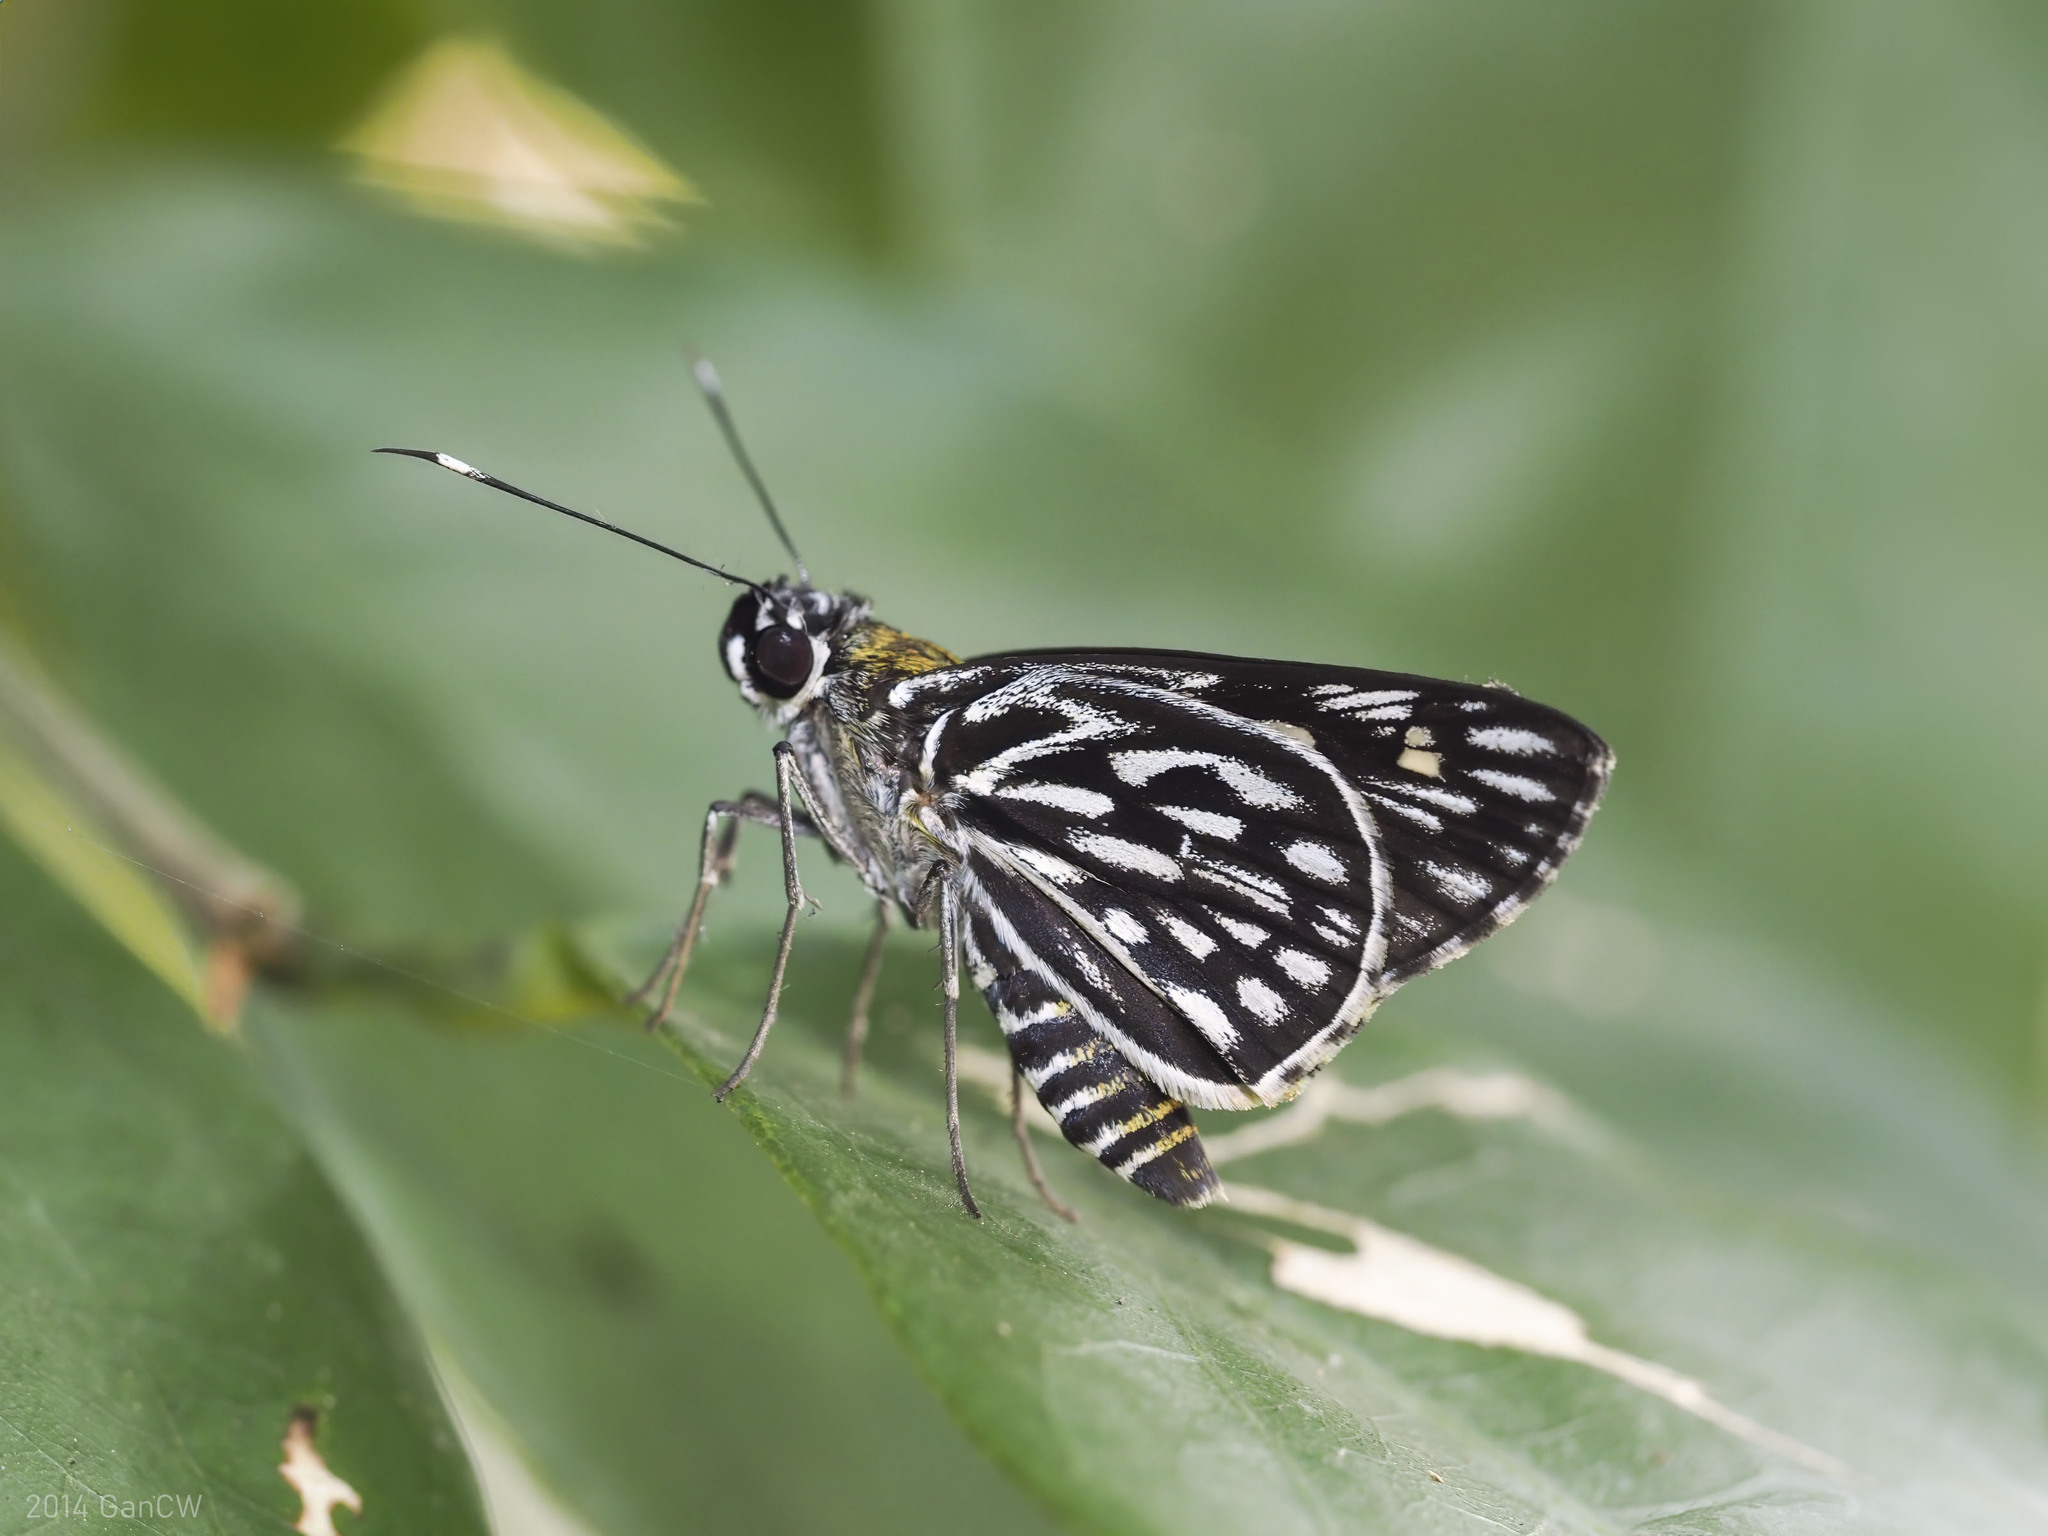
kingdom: Animalia
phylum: Arthropoda
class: Insecta
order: Lepidoptera
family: Hesperiidae
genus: Plastingia
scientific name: Plastingia naga
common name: Chequered lancer
